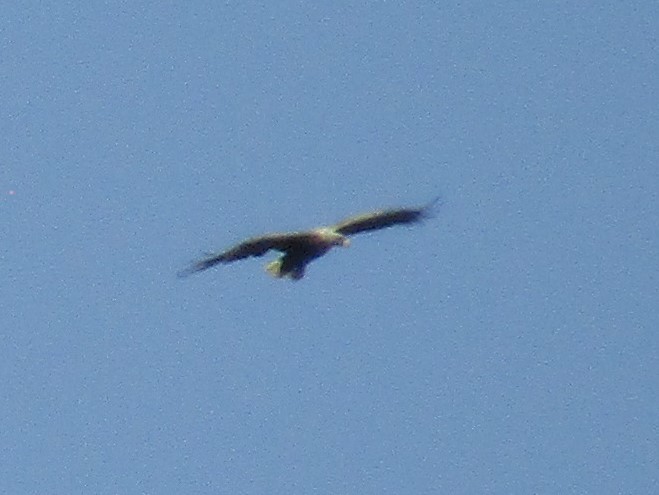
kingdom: Animalia
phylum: Chordata
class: Aves
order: Accipitriformes
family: Accipitridae
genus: Haliaeetus
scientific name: Haliaeetus albicilla
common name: White-tailed eagle
